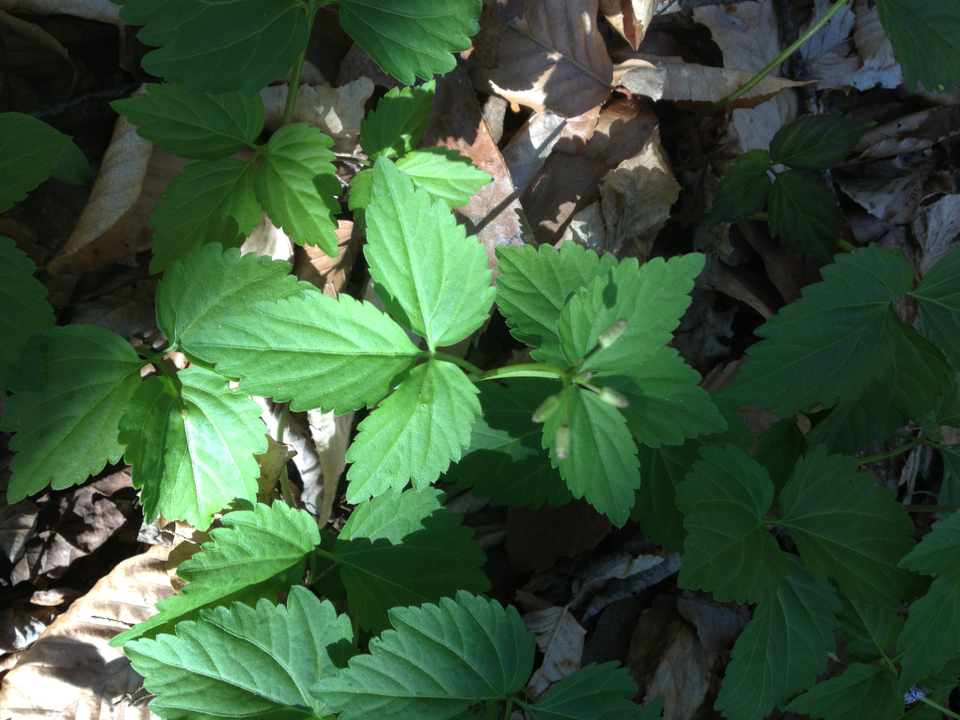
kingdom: Plantae
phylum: Tracheophyta
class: Magnoliopsida
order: Brassicales
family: Brassicaceae
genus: Cardamine
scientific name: Cardamine diphylla
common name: Broad-leaved toothwort
